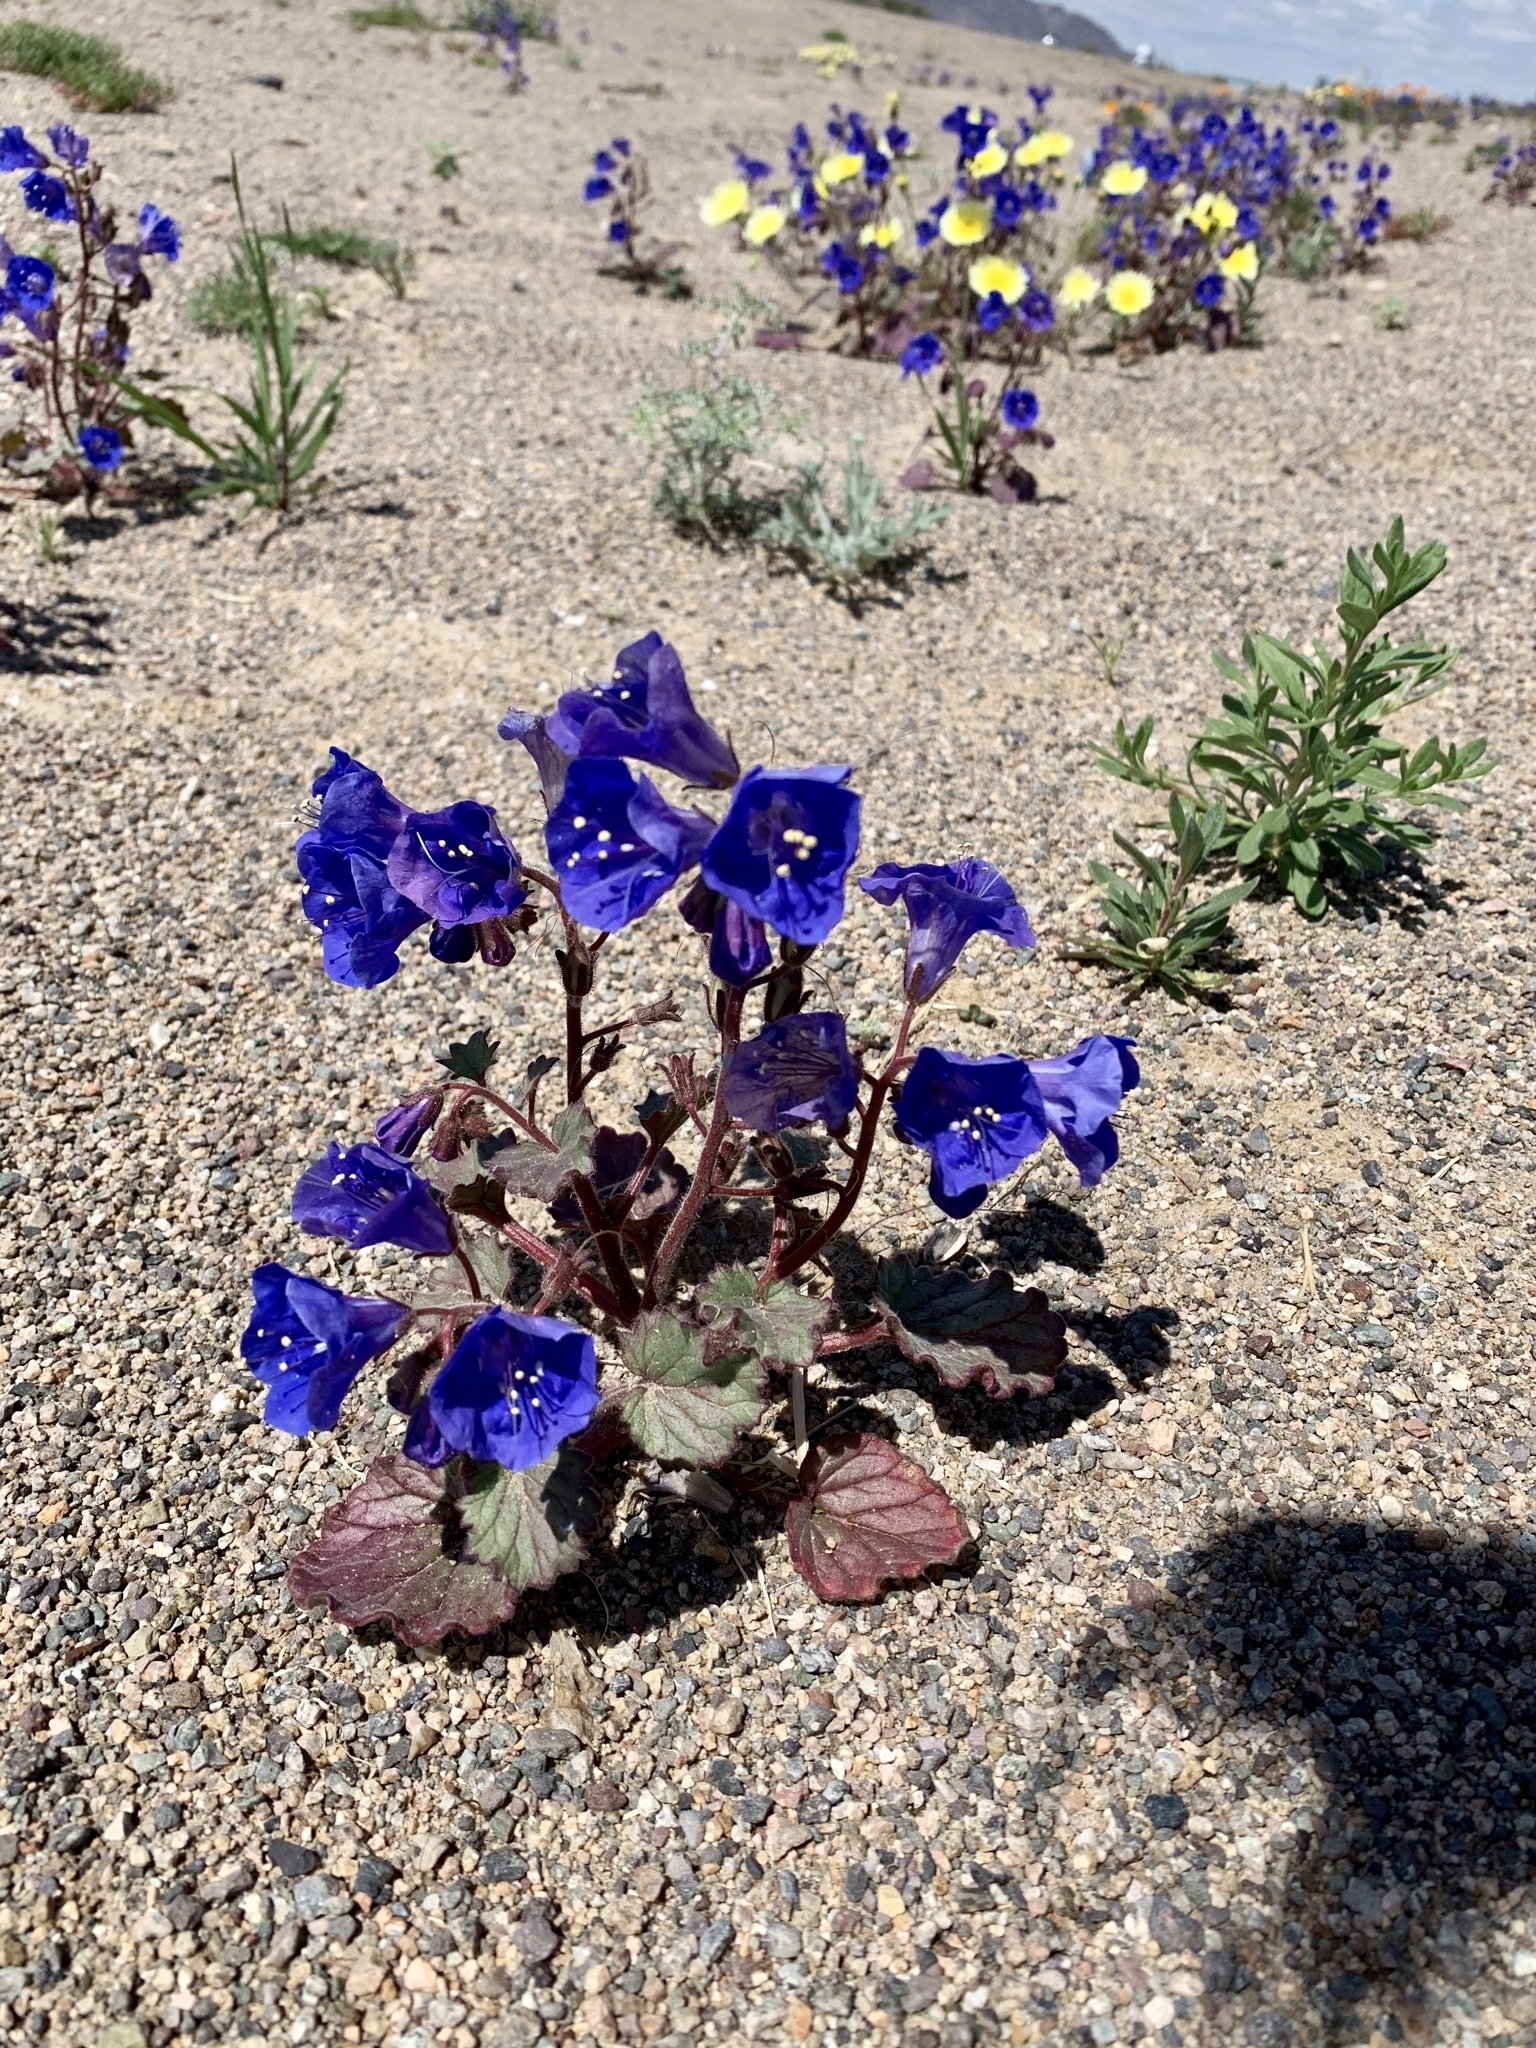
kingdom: Plantae
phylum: Tracheophyta
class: Magnoliopsida
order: Boraginales
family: Hydrophyllaceae
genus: Phacelia
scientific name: Phacelia campanularia
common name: California bluebell
